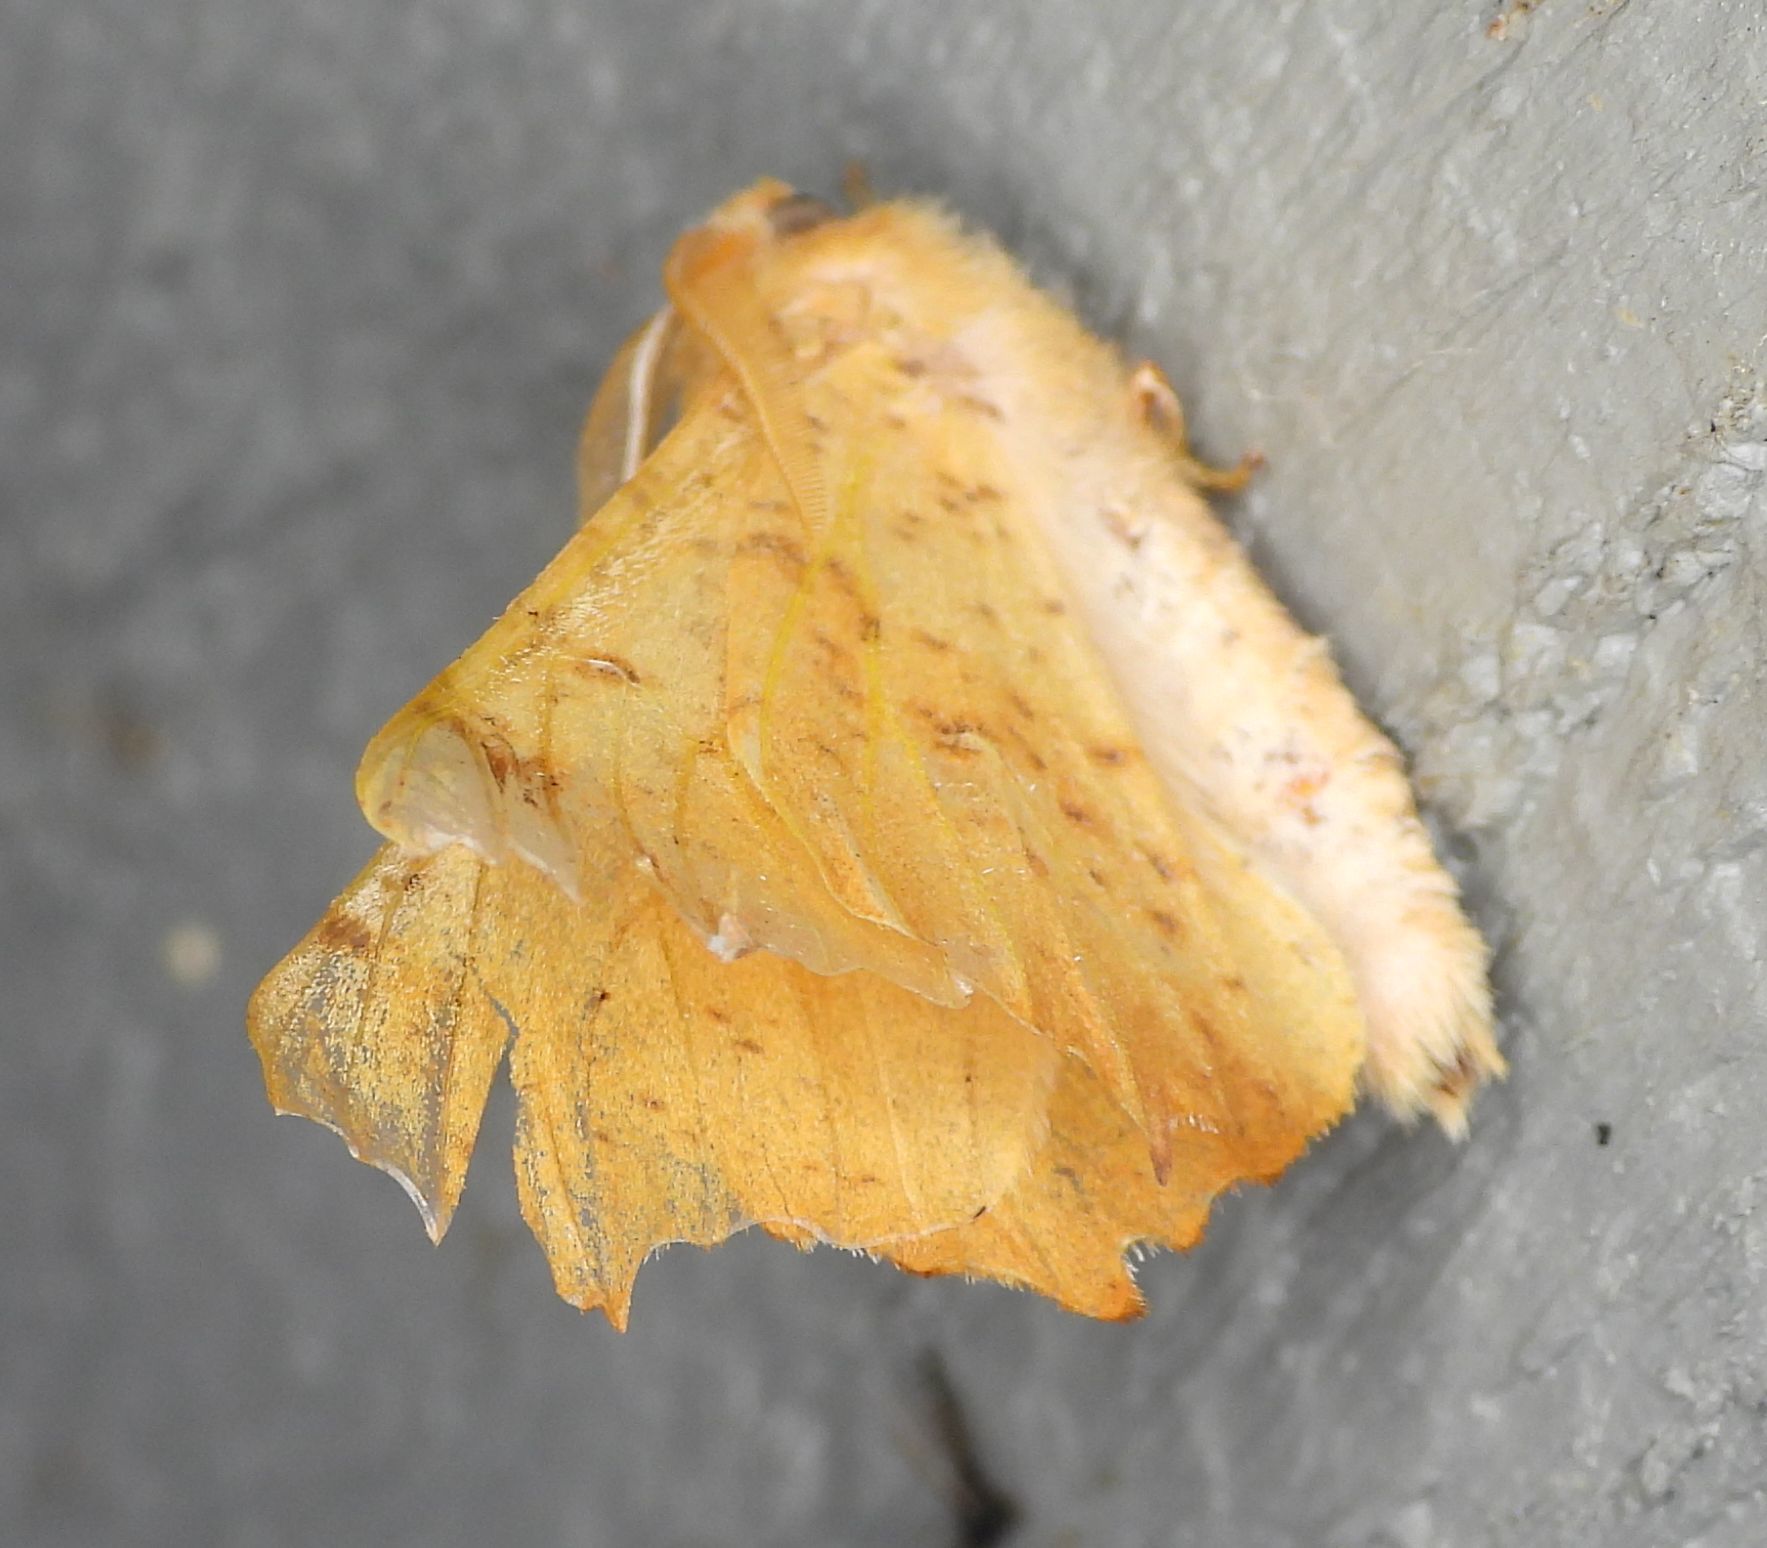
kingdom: Animalia
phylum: Arthropoda
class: Insecta
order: Lepidoptera
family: Geometridae
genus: Ennomos
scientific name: Ennomos magnaria
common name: Maple spanworm
